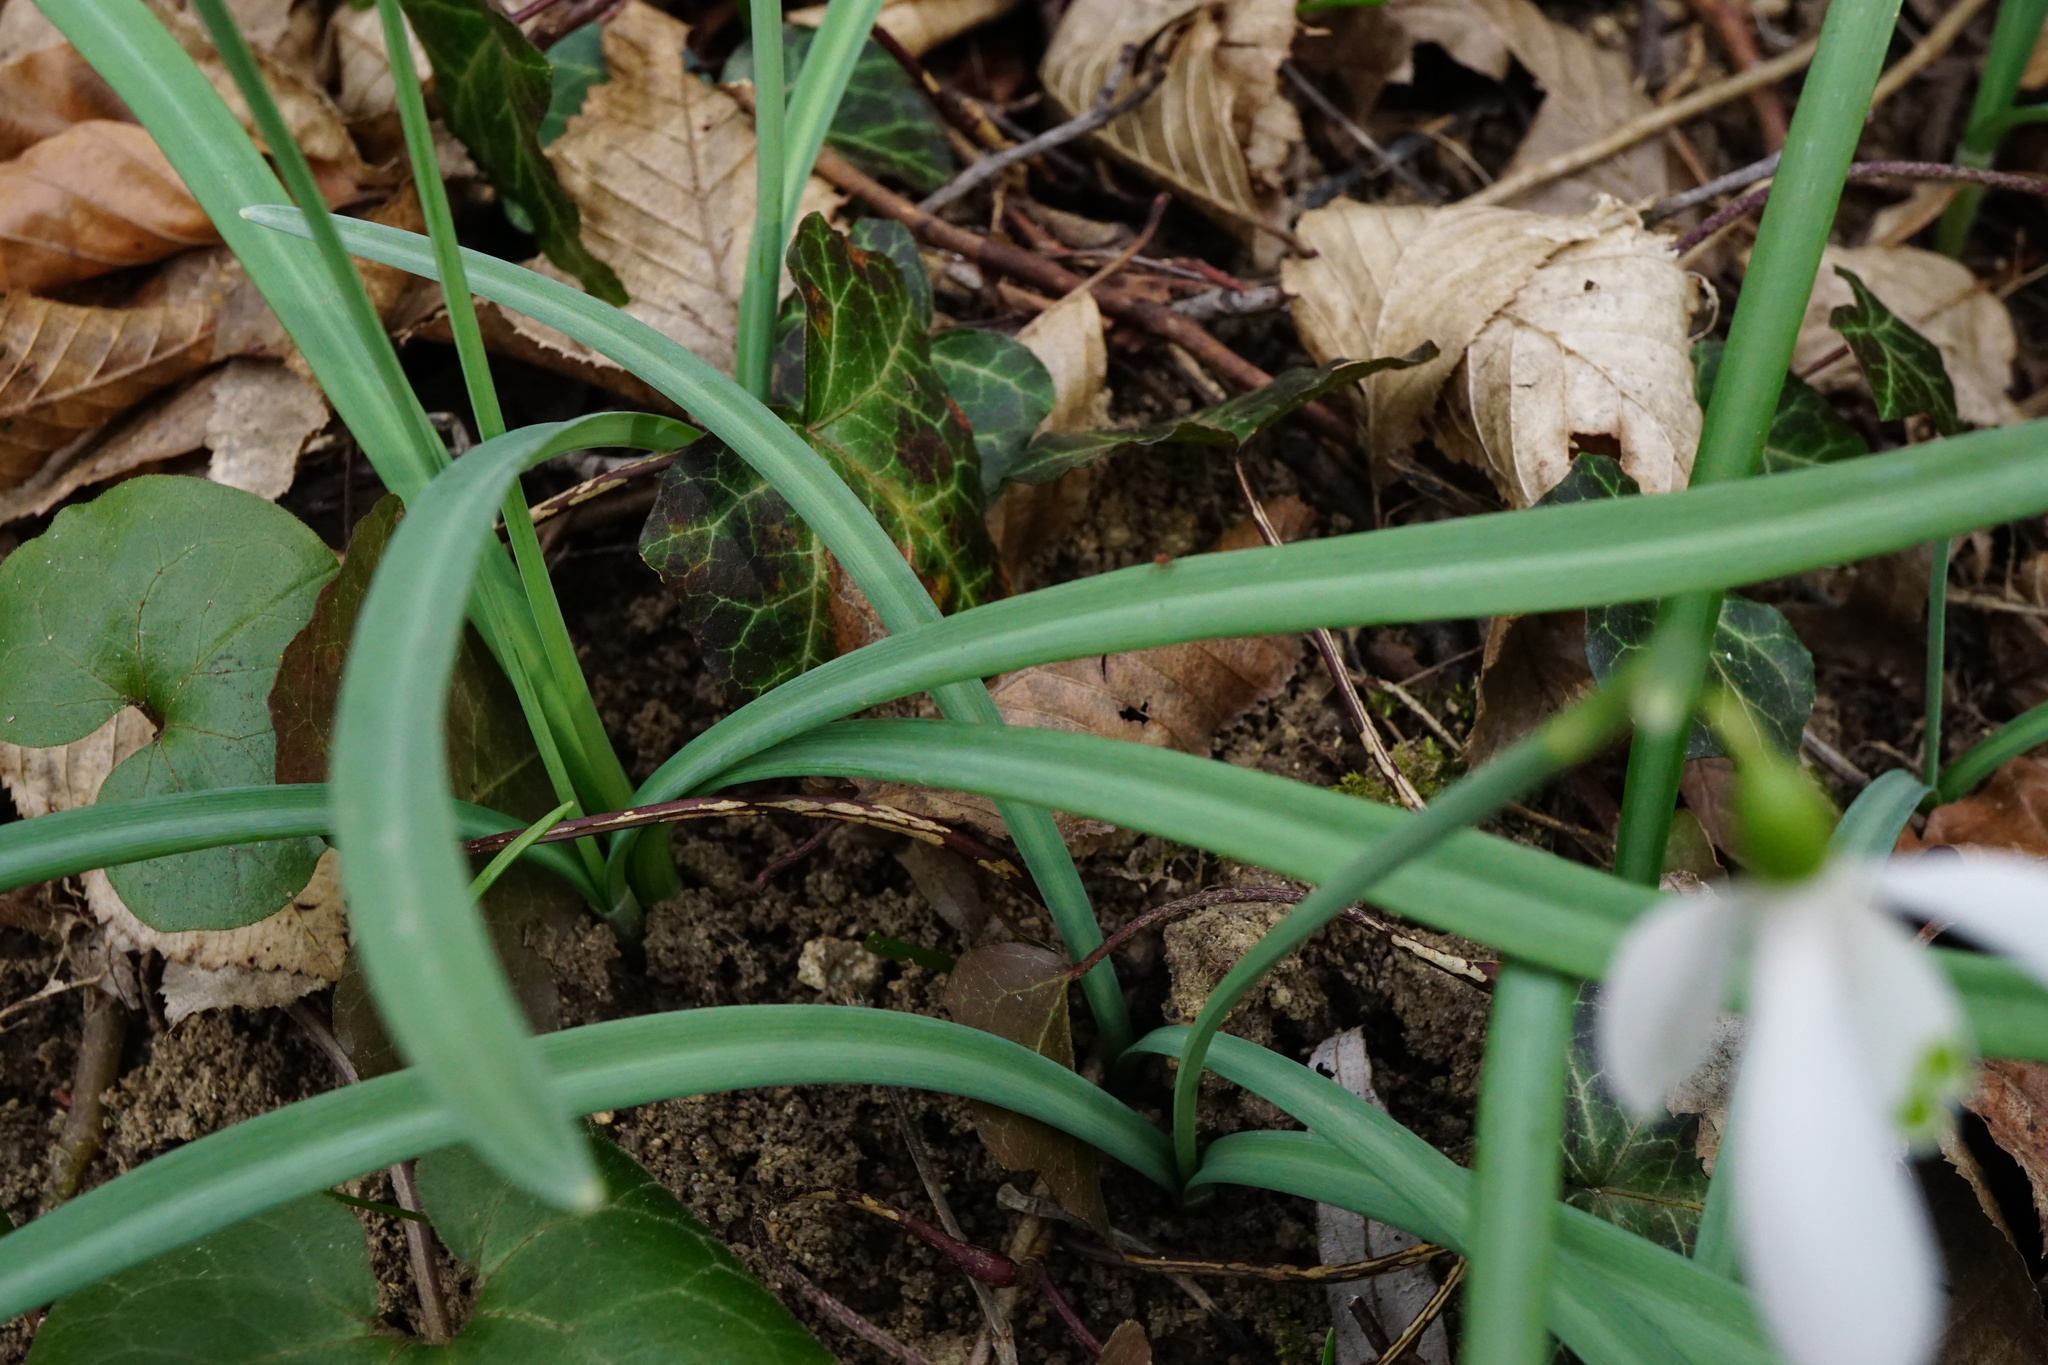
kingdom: Plantae
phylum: Tracheophyta
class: Liliopsida
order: Asparagales
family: Amaryllidaceae
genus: Galanthus
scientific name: Galanthus nivalis
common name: Snowdrop
